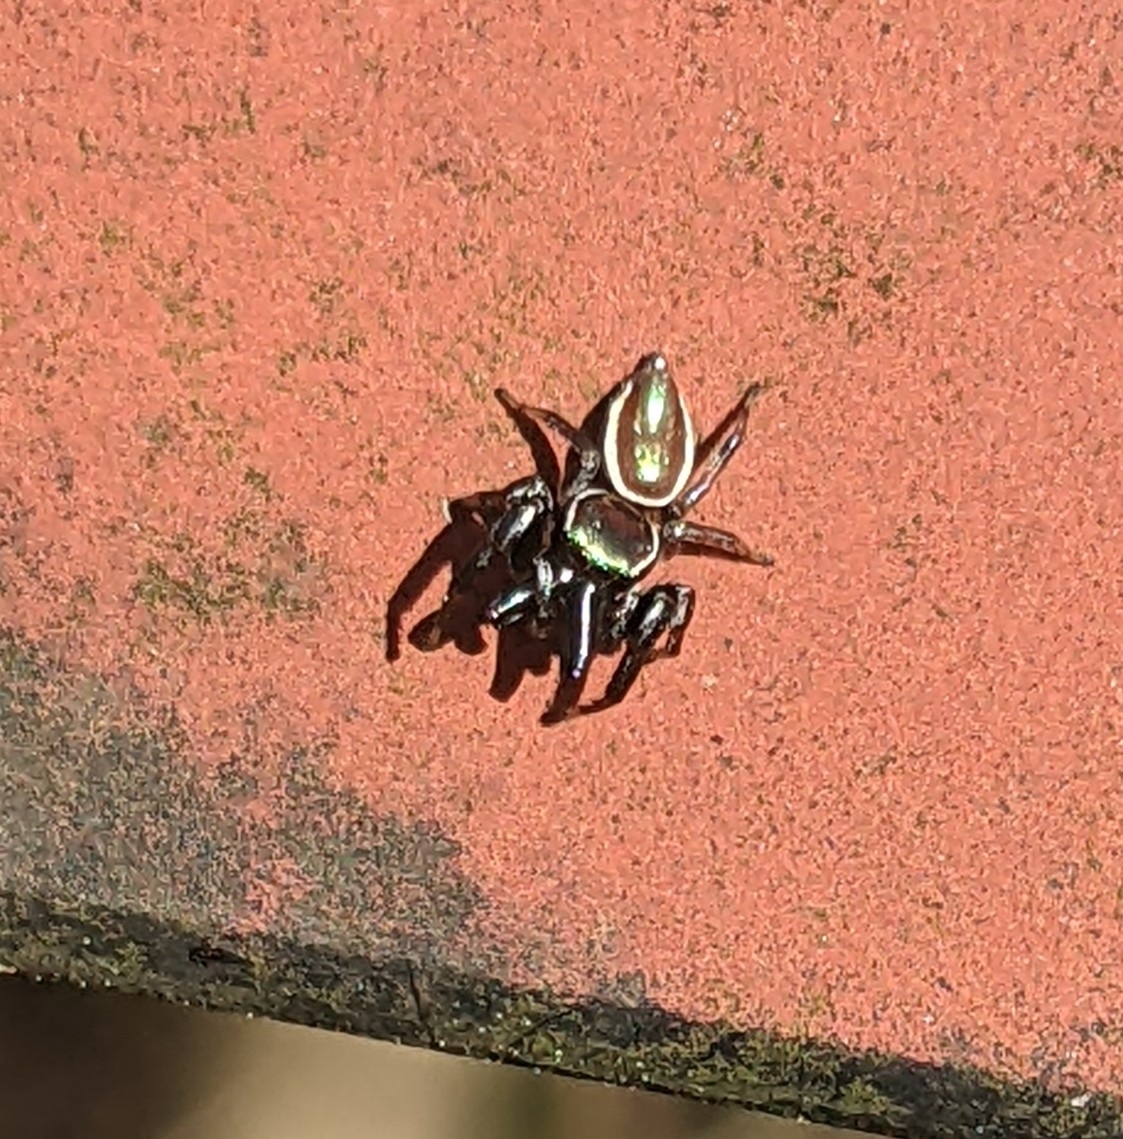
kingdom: Animalia
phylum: Arthropoda
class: Arachnida
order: Araneae
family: Salticidae
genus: Messua
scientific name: Messua limbata
